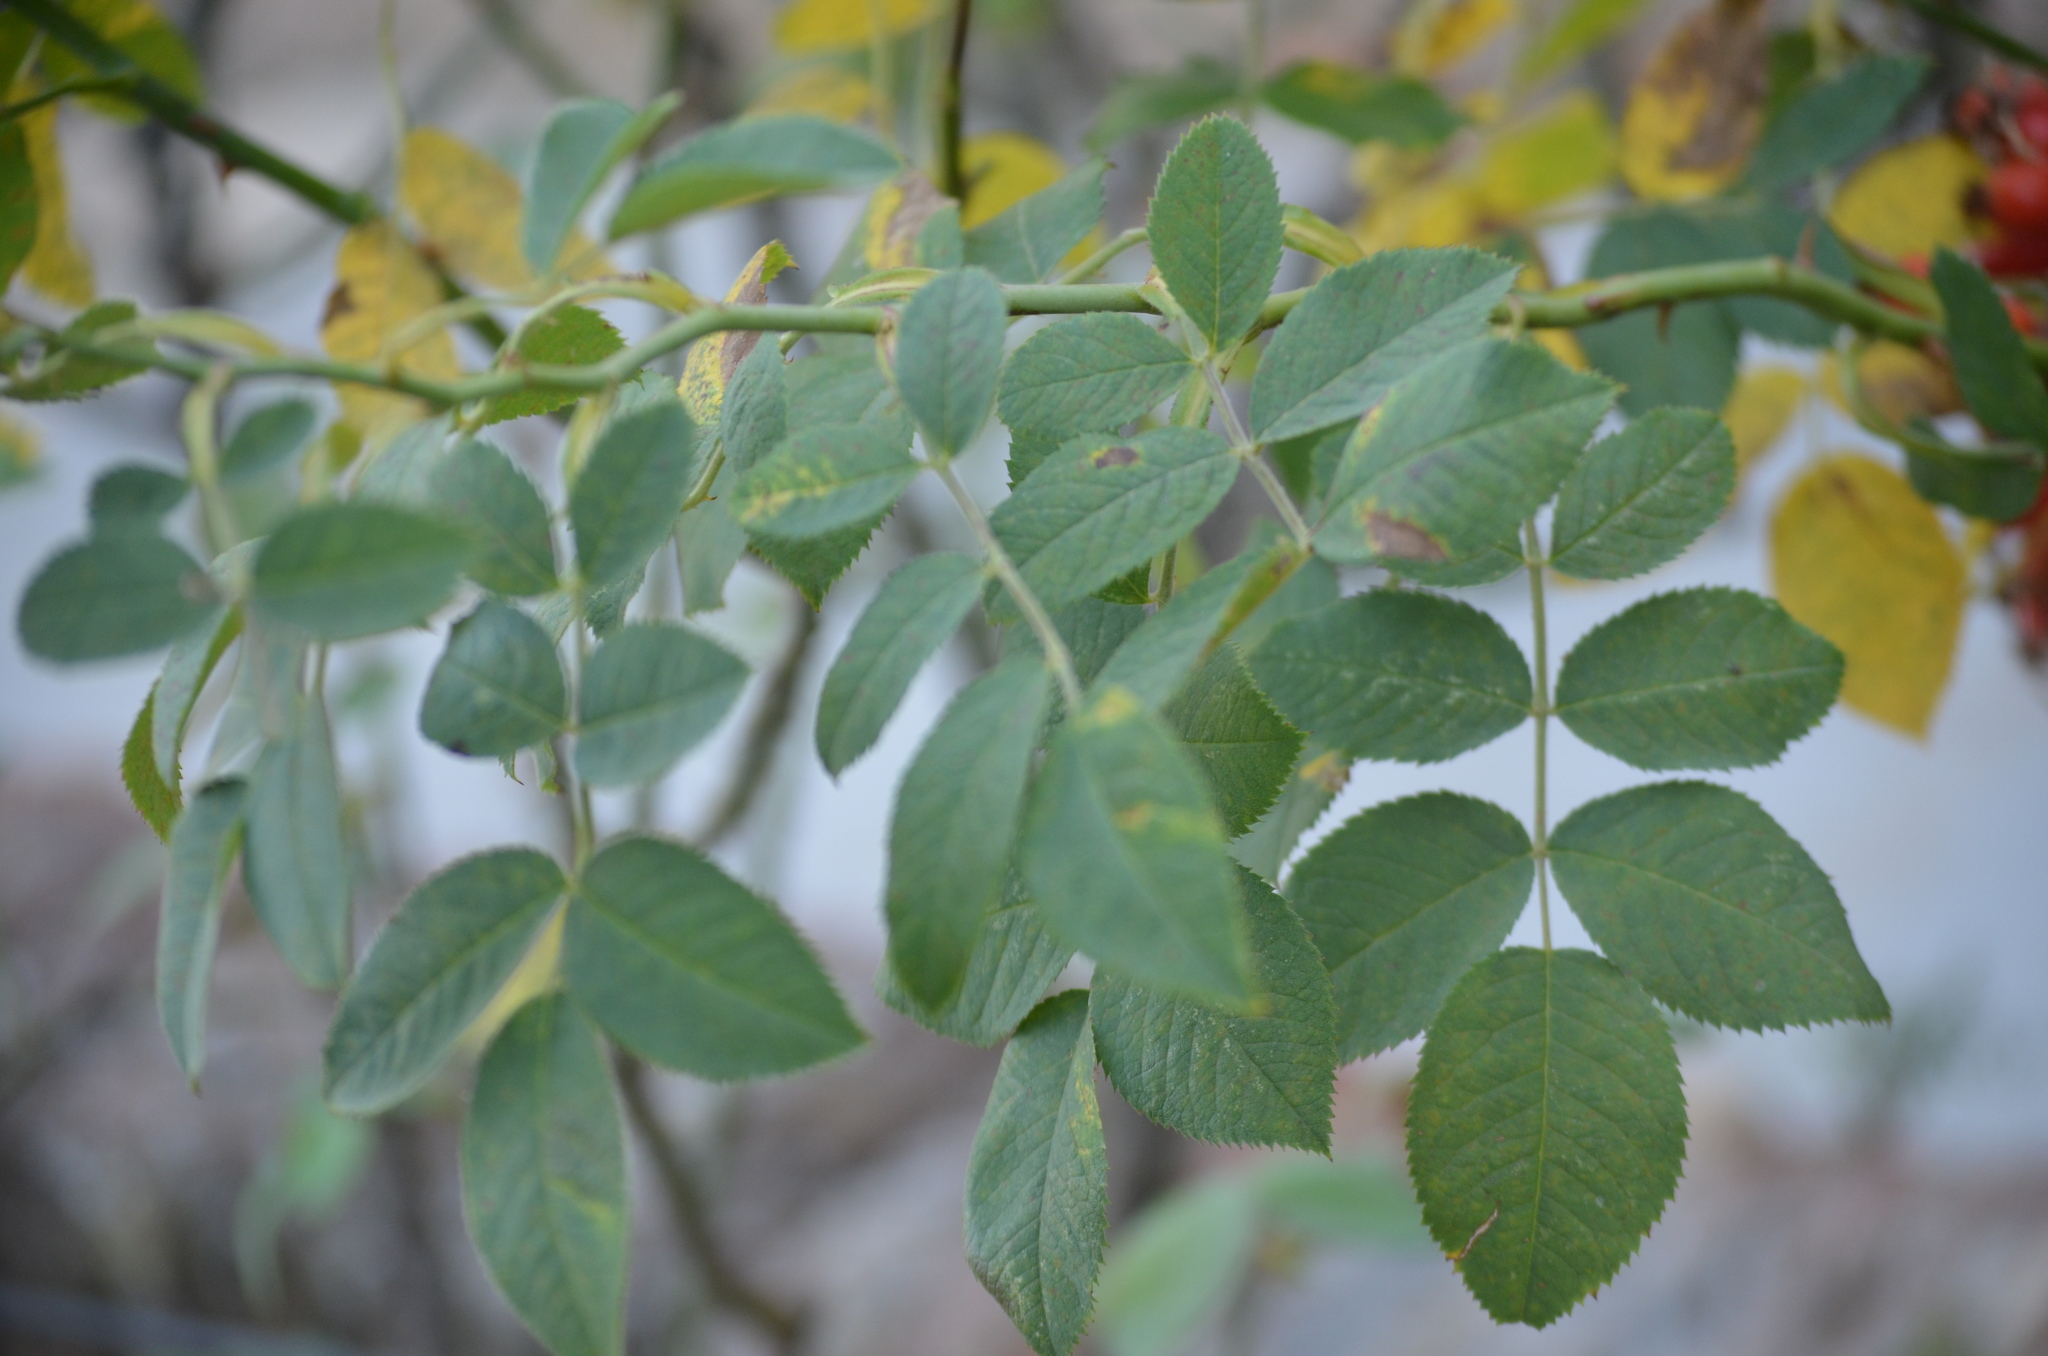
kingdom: Plantae
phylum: Tracheophyta
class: Magnoliopsida
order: Rosales
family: Rosaceae
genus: Rosa
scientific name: Rosa canina
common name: Dog rose
